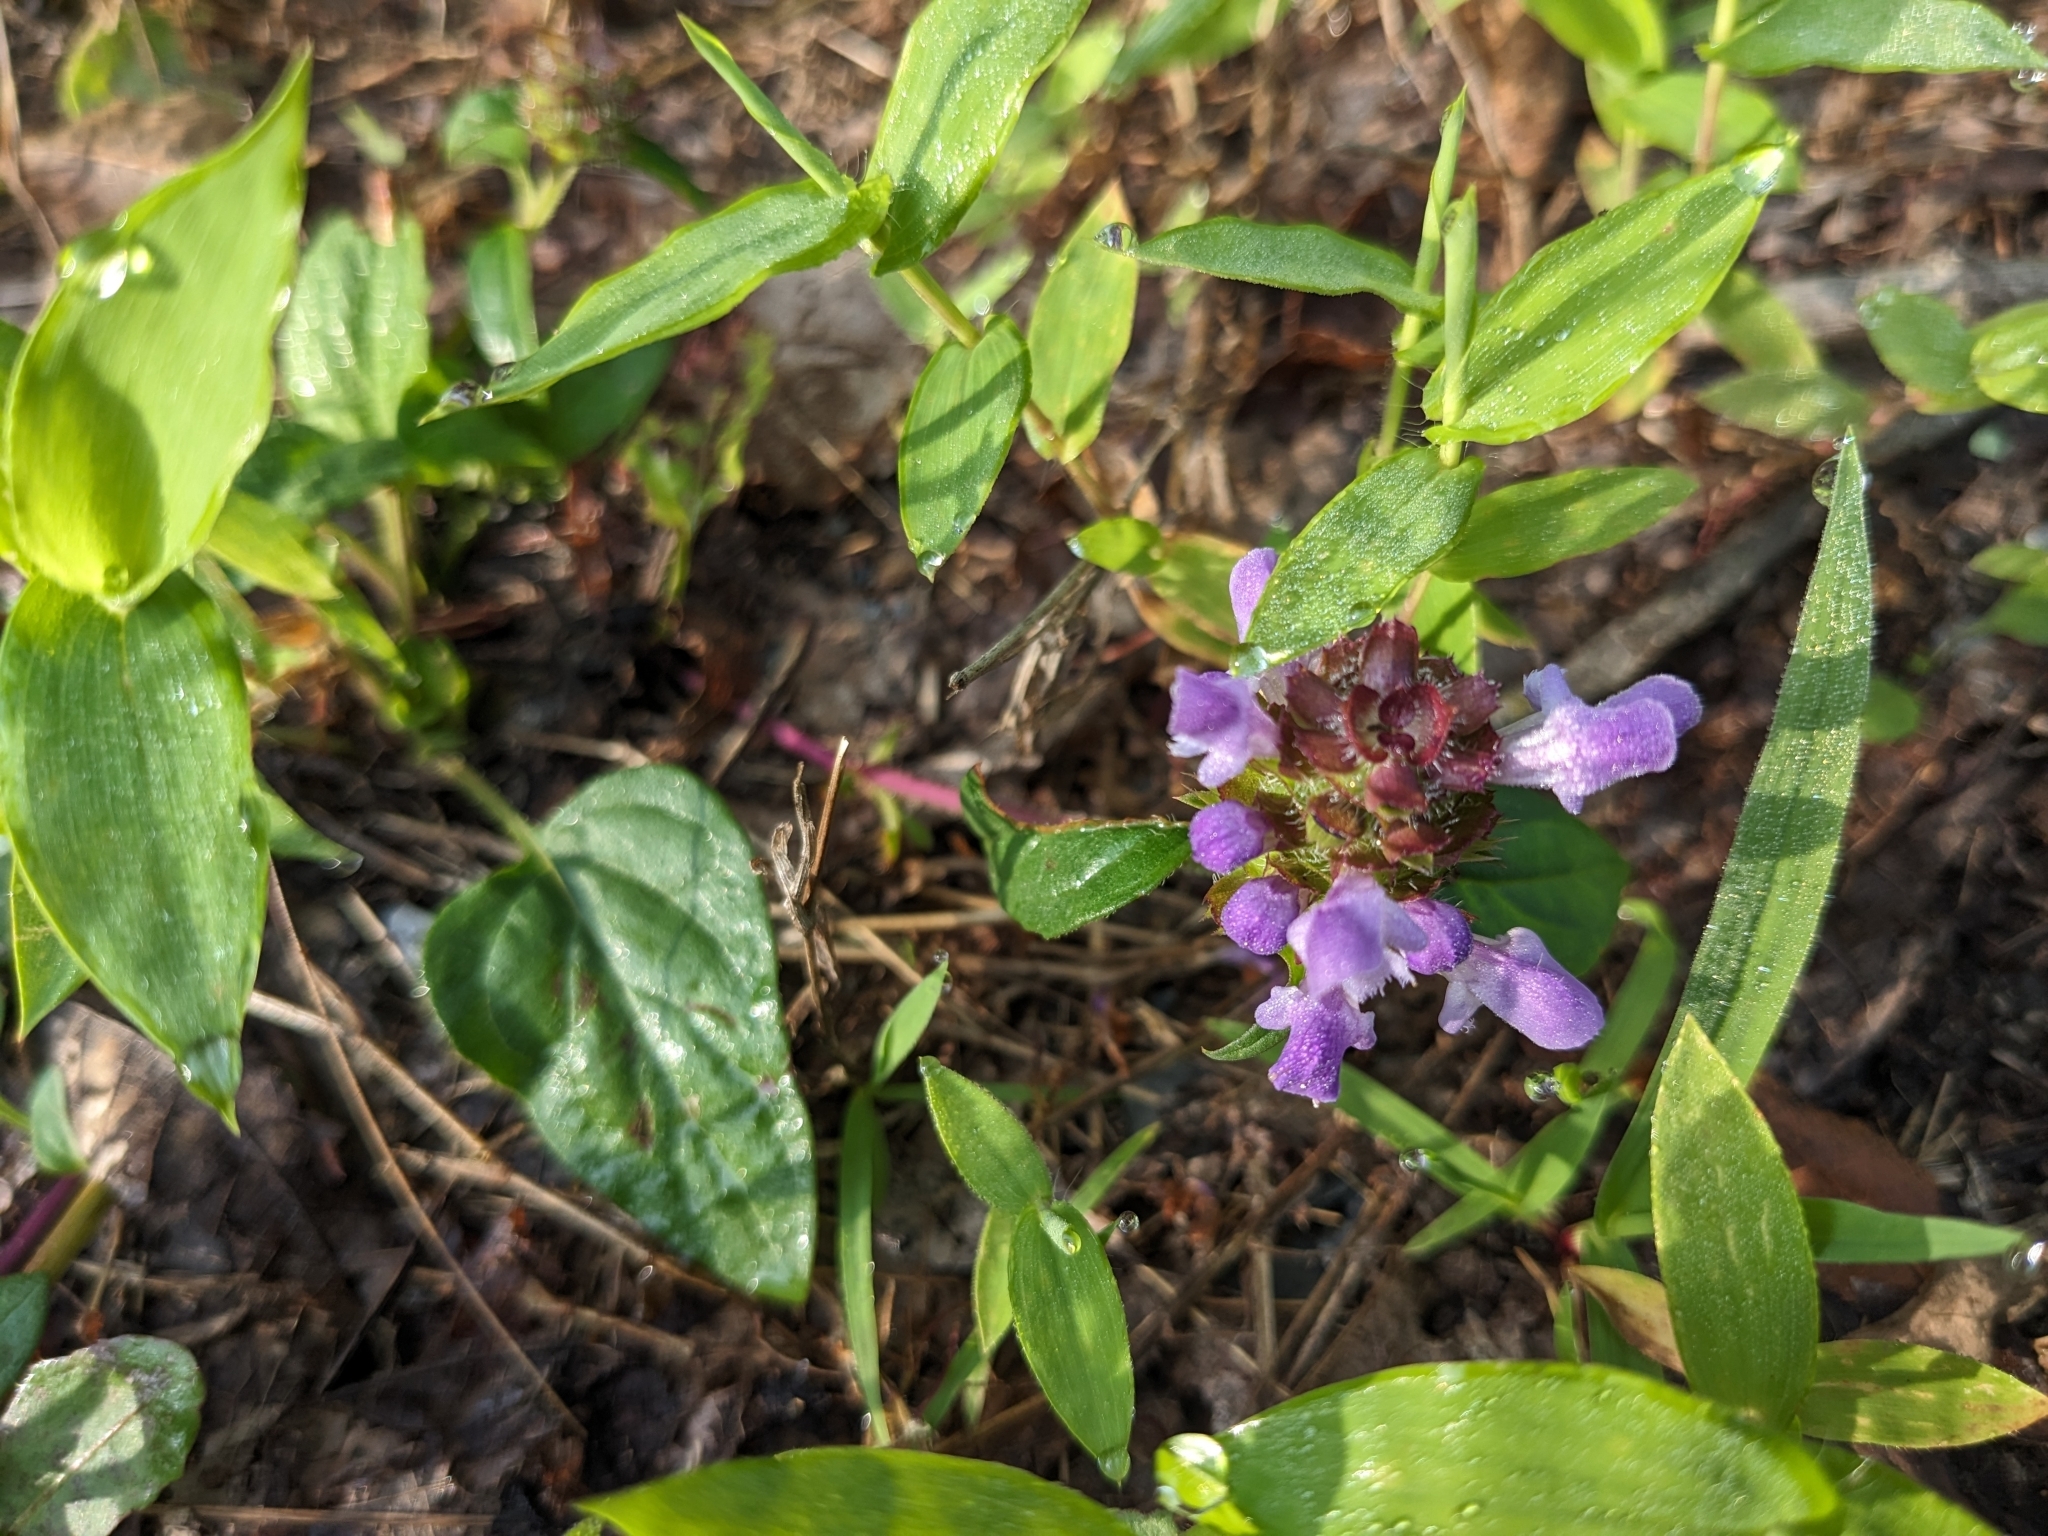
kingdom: Plantae
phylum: Tracheophyta
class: Magnoliopsida
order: Lamiales
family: Lamiaceae
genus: Prunella
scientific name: Prunella vulgaris
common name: Heal-all
